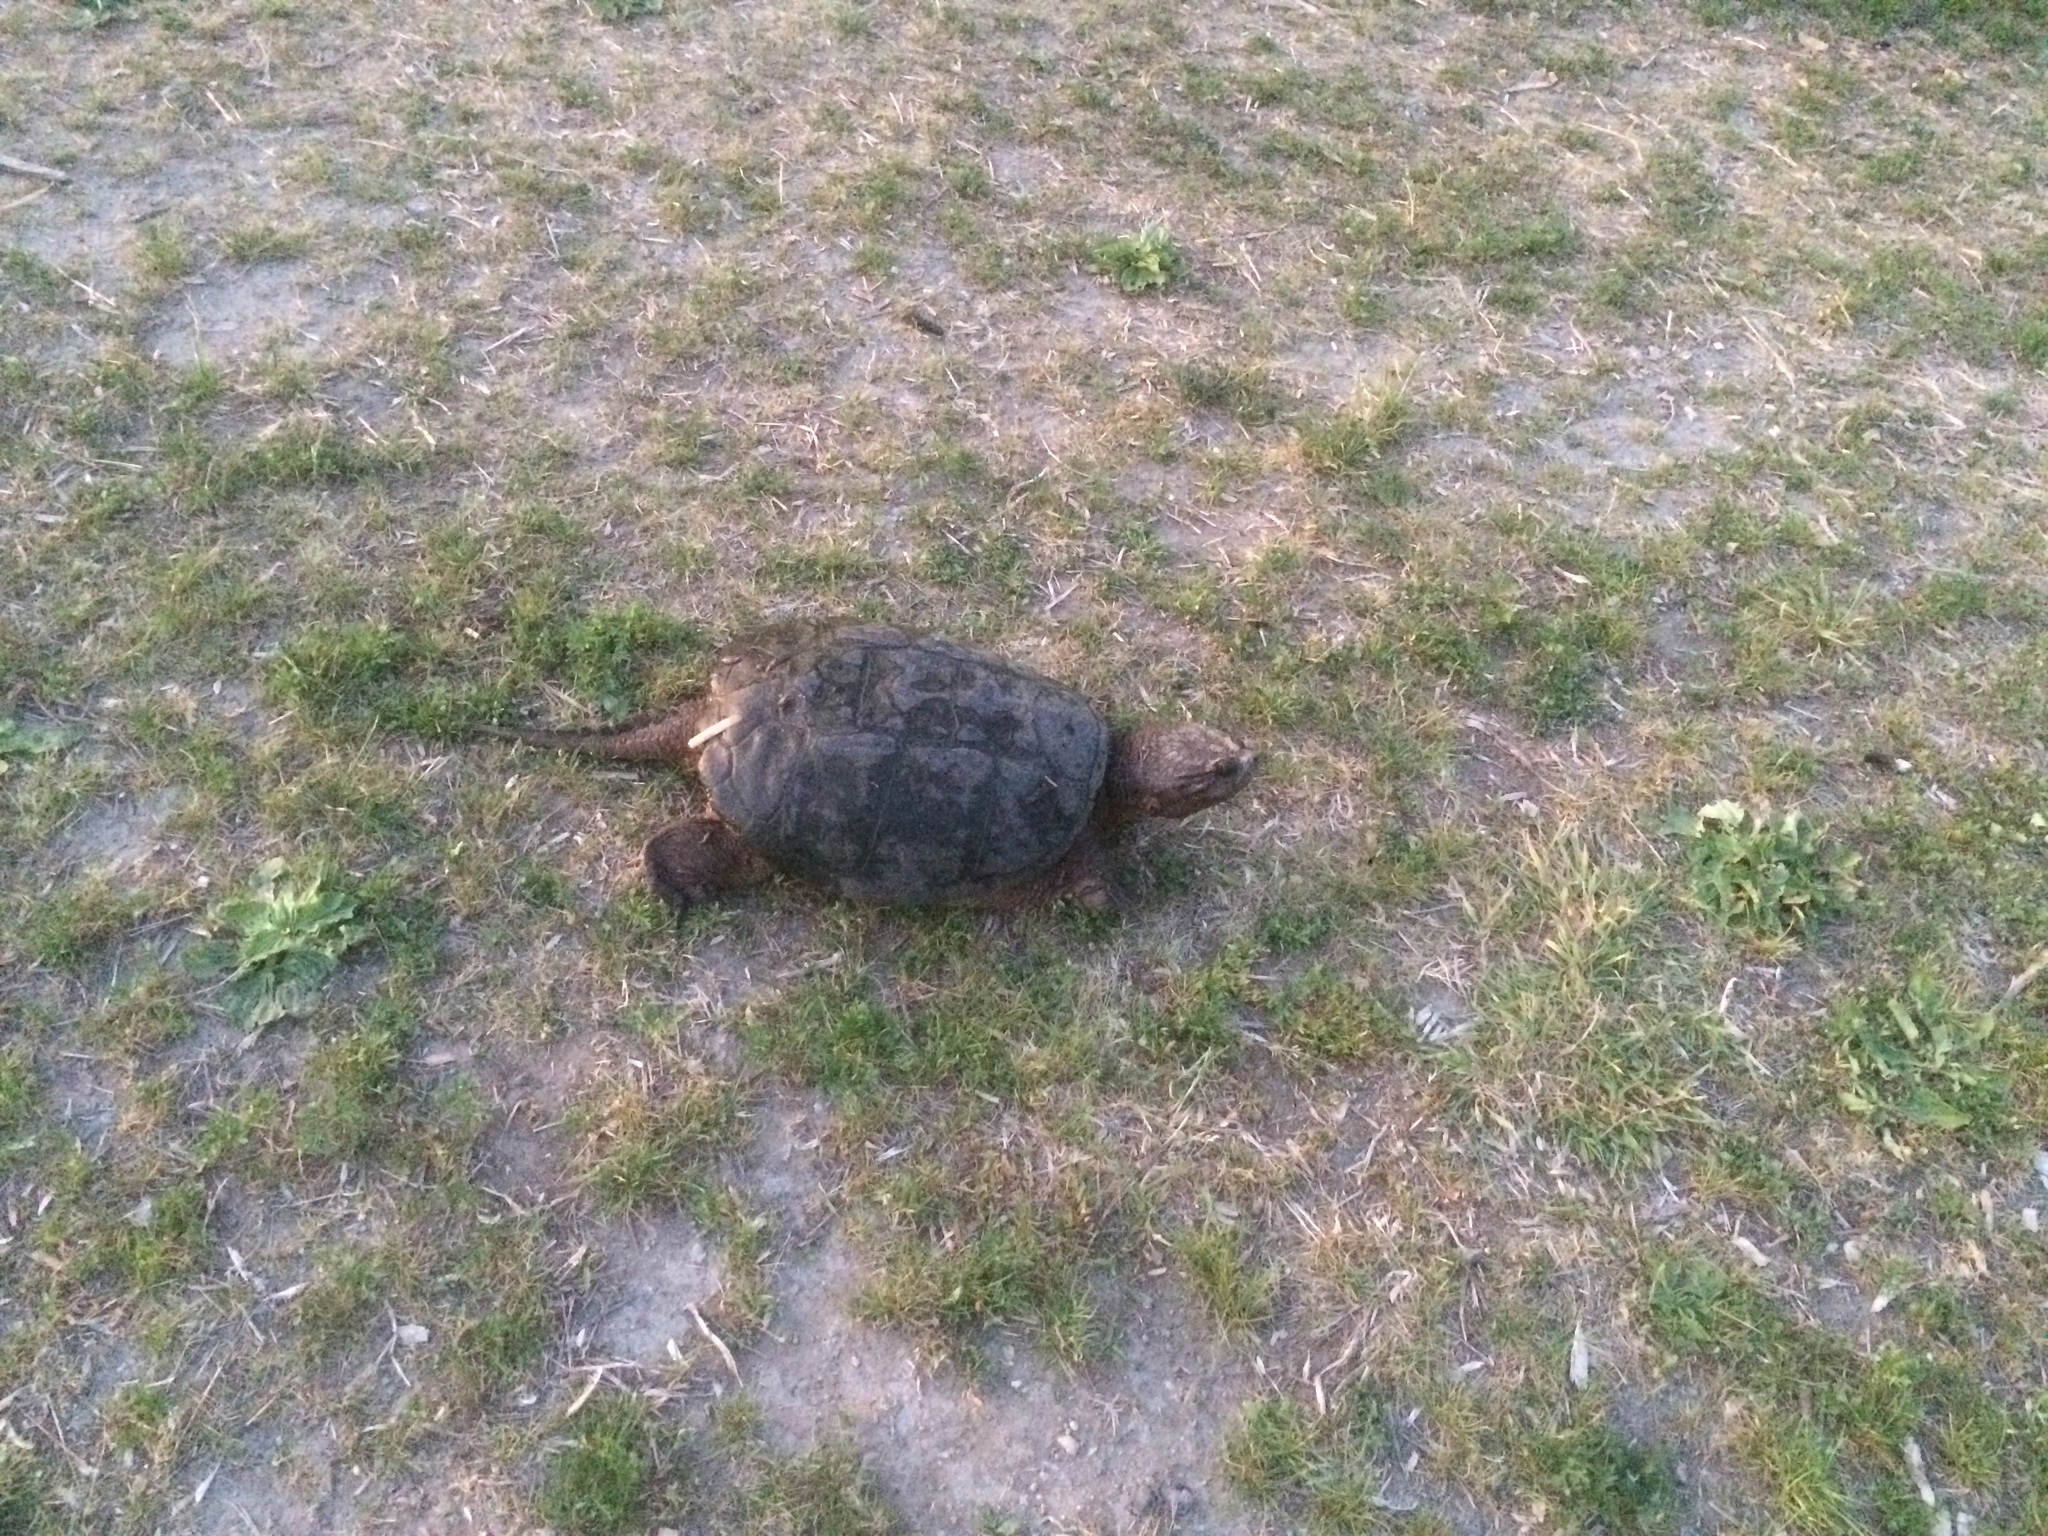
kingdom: Animalia
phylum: Chordata
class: Testudines
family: Chelydridae
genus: Chelydra
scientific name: Chelydra serpentina
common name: Common snapping turtle
